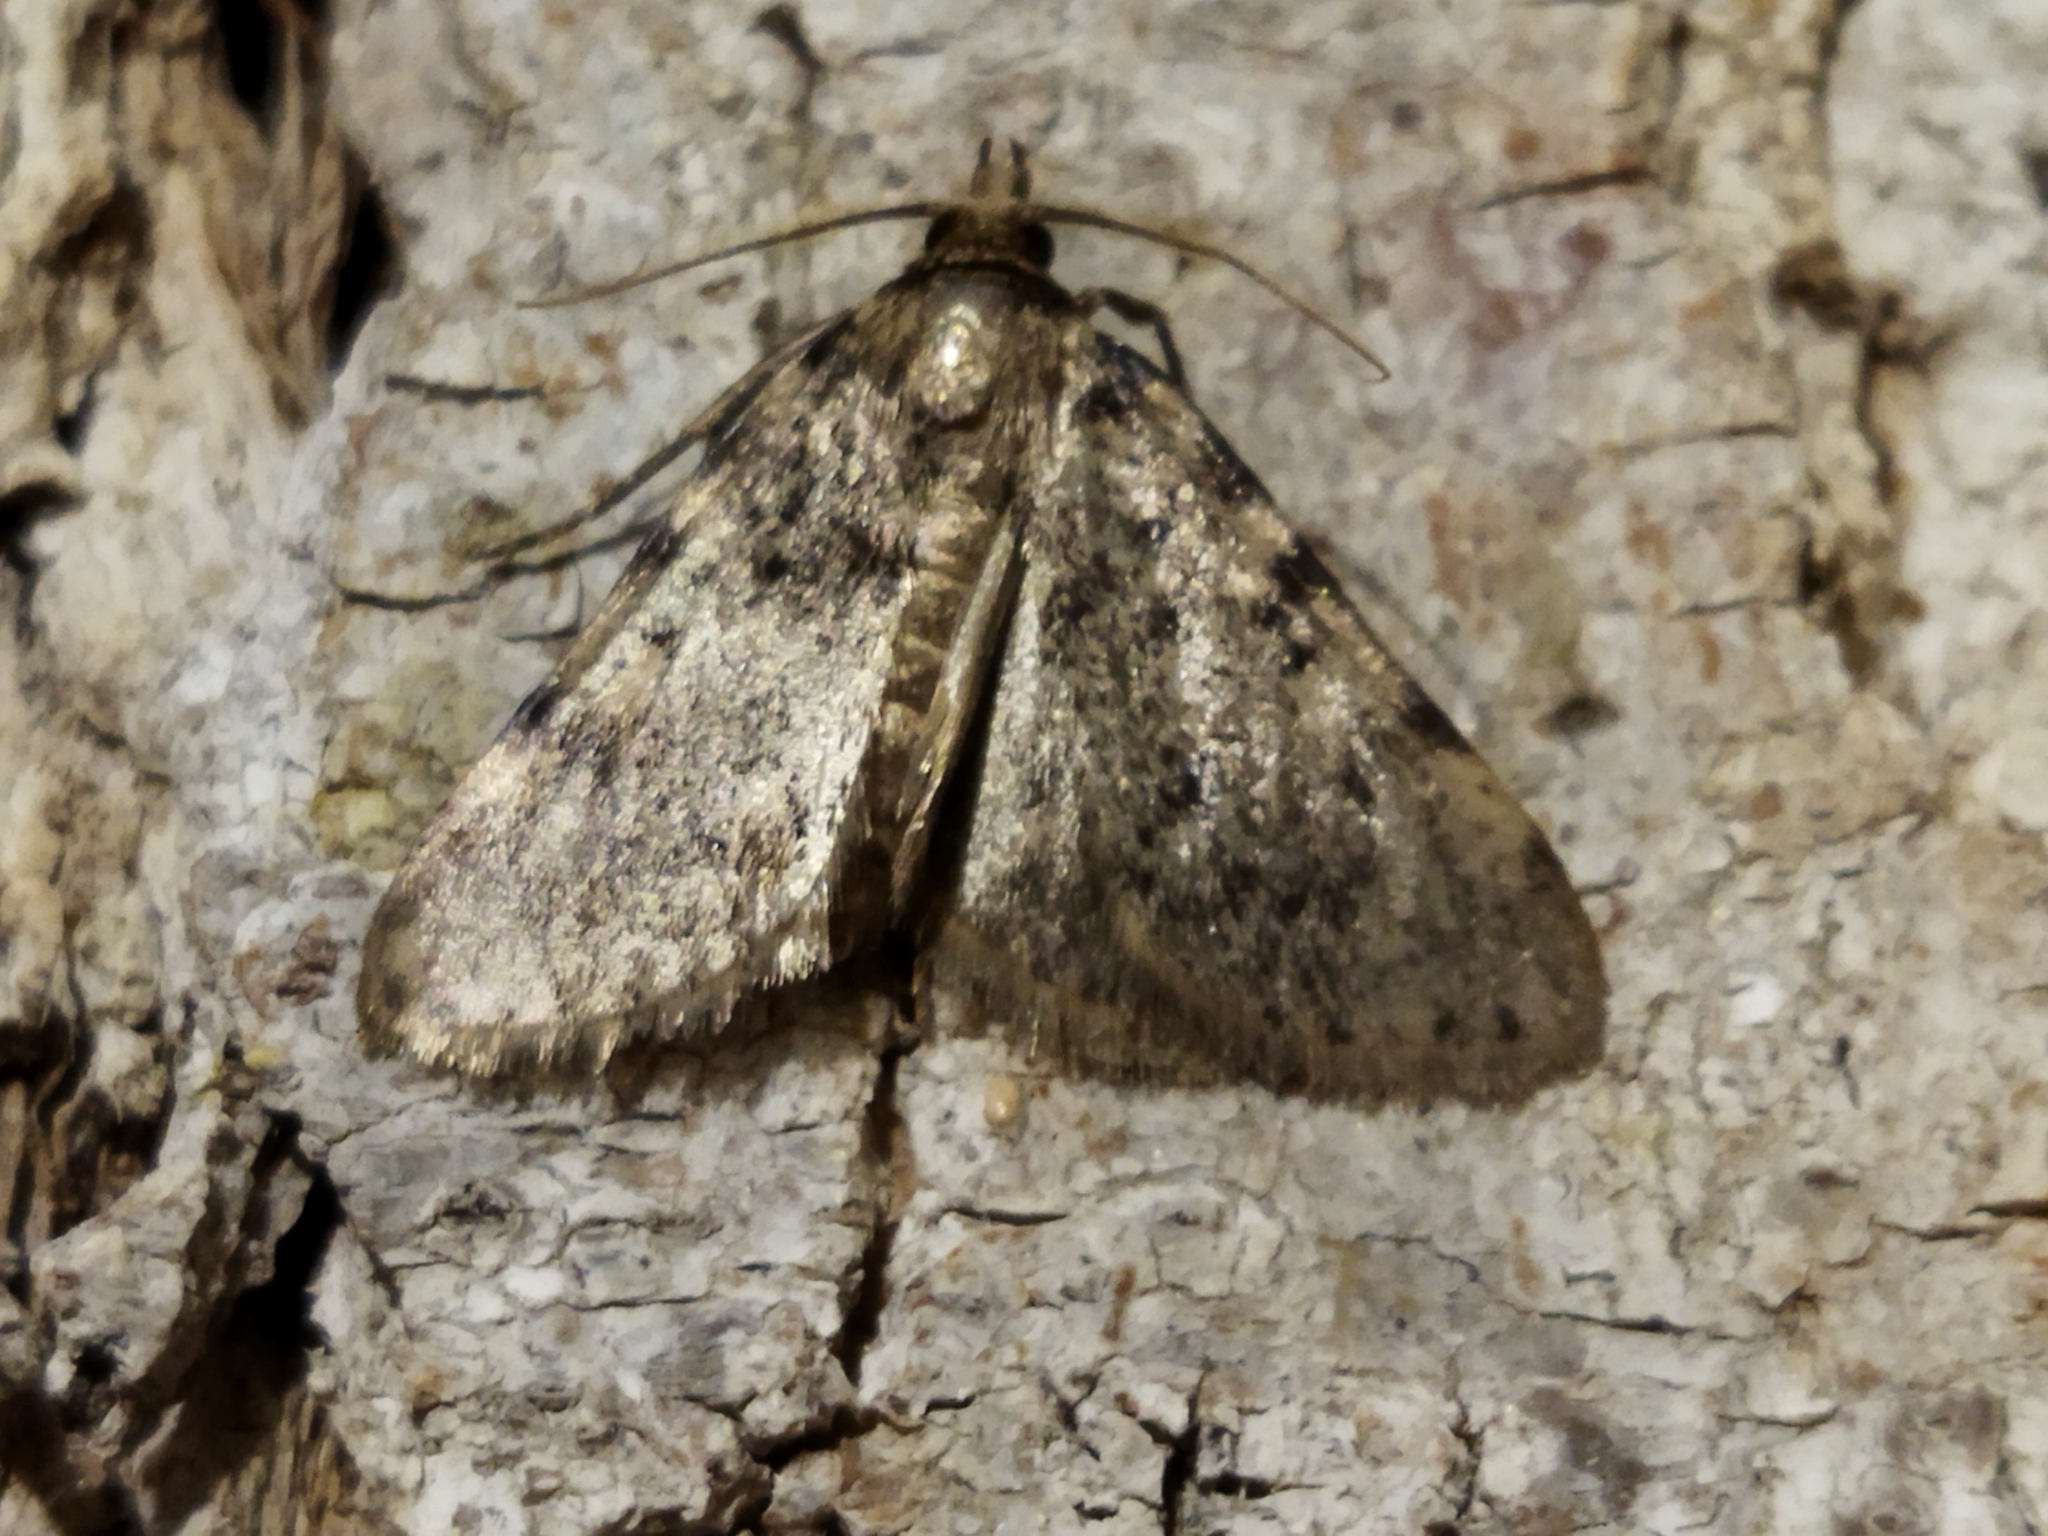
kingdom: Animalia
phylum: Arthropoda
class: Insecta
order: Lepidoptera
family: Pyralidae
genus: Aglossa
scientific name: Aglossa pinguinalis
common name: Large tabby
